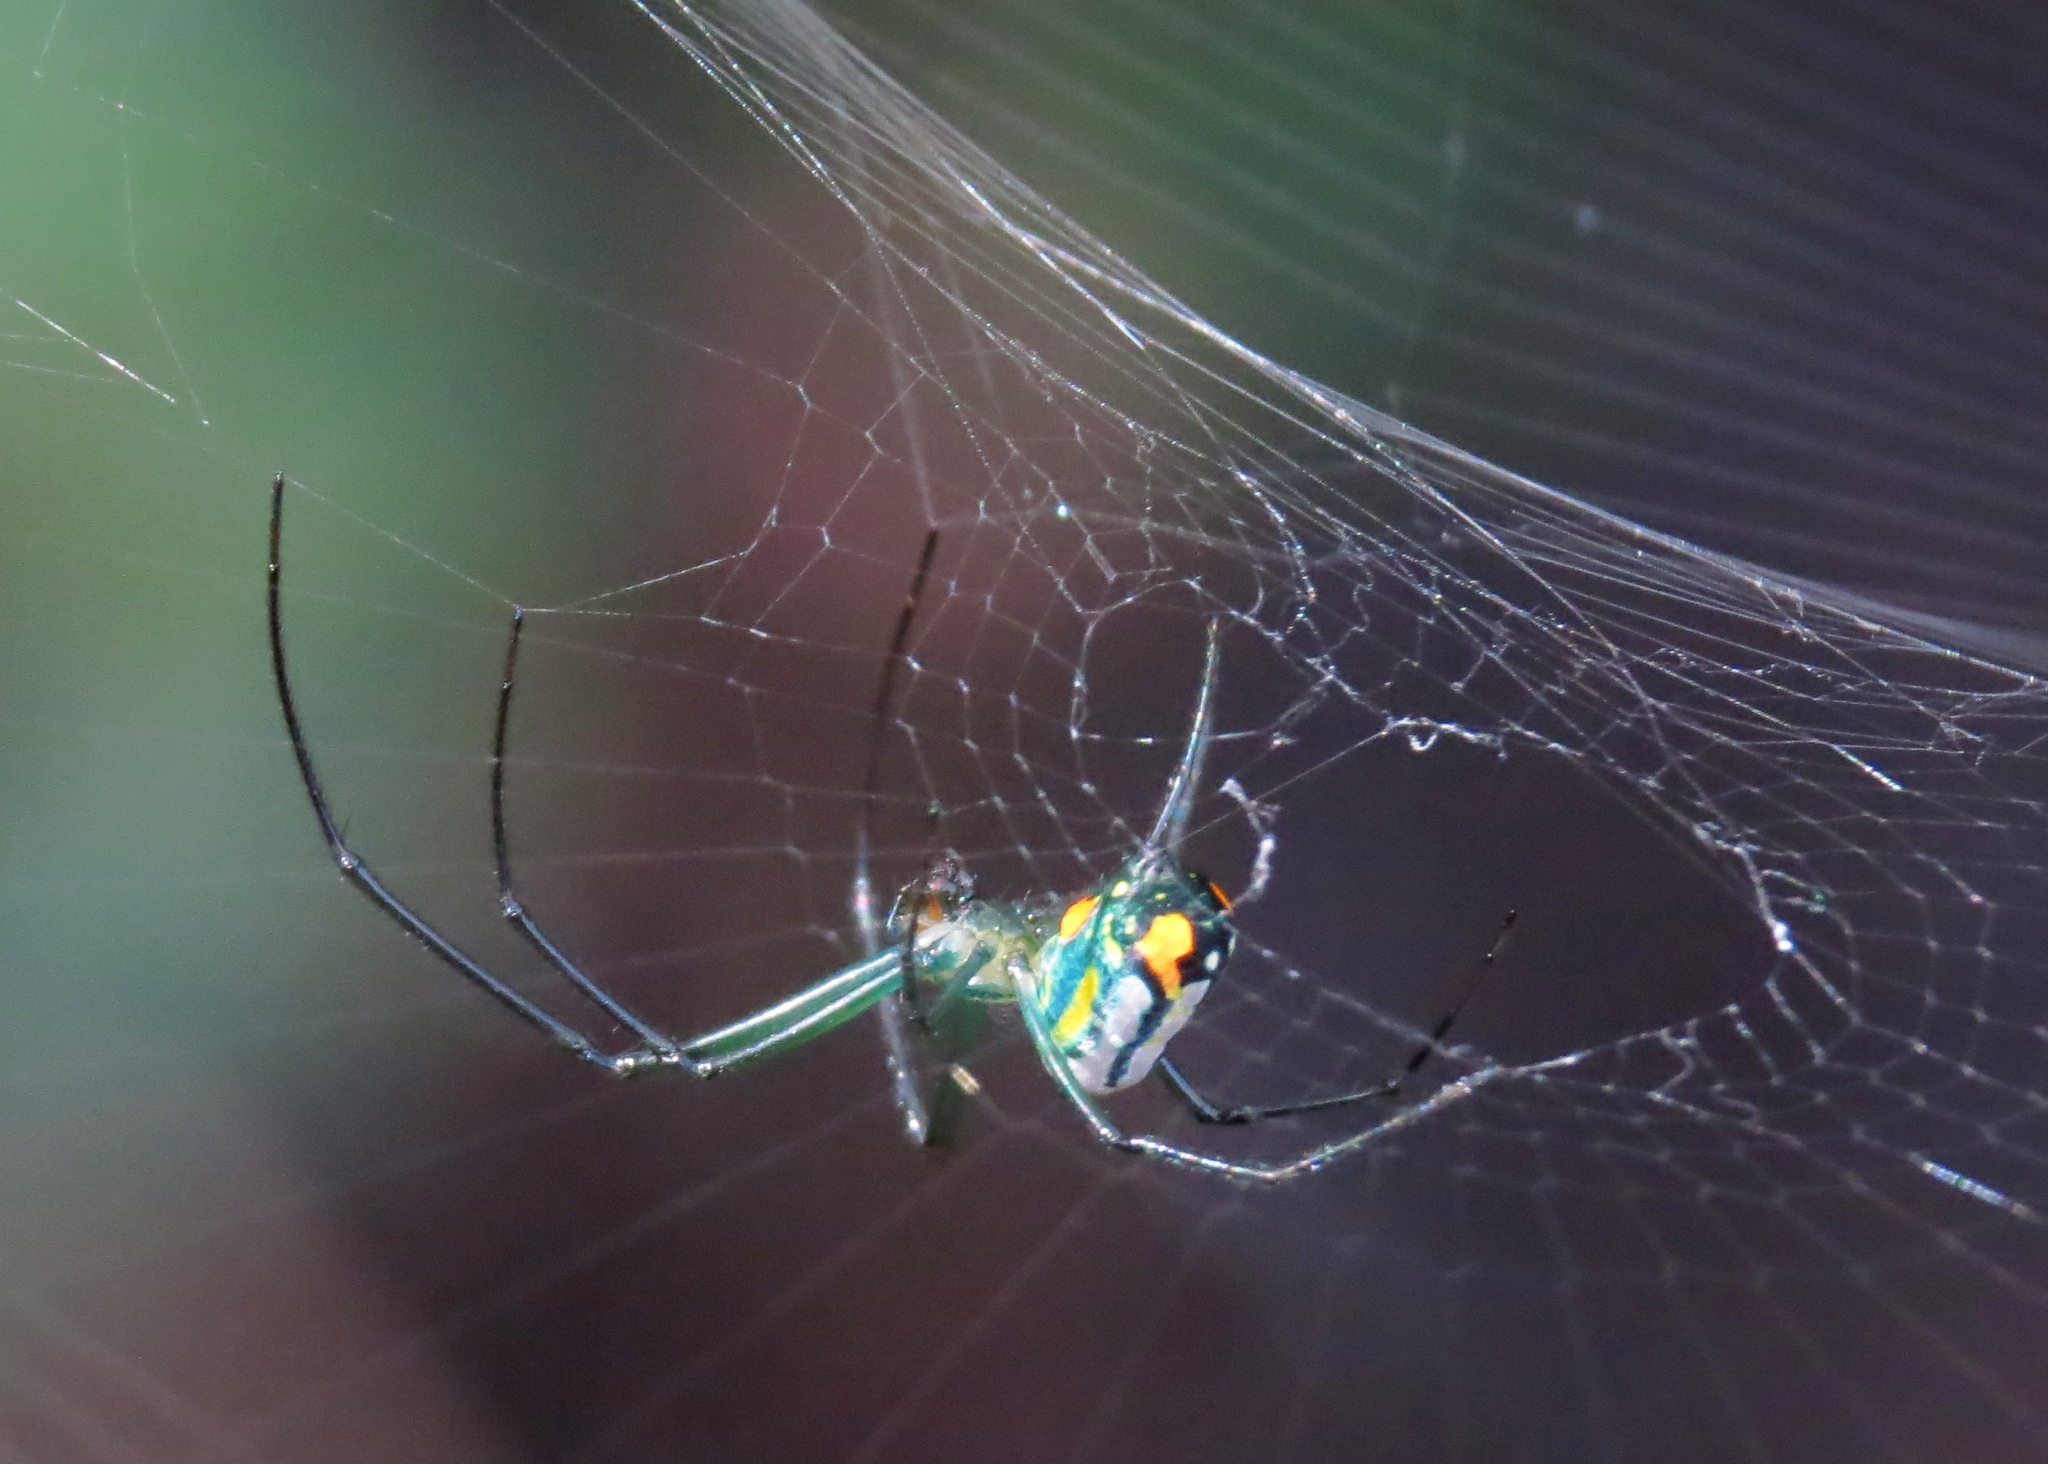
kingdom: Animalia
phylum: Arthropoda
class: Arachnida
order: Araneae
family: Tetragnathidae
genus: Leucauge
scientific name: Leucauge argyrobapta
